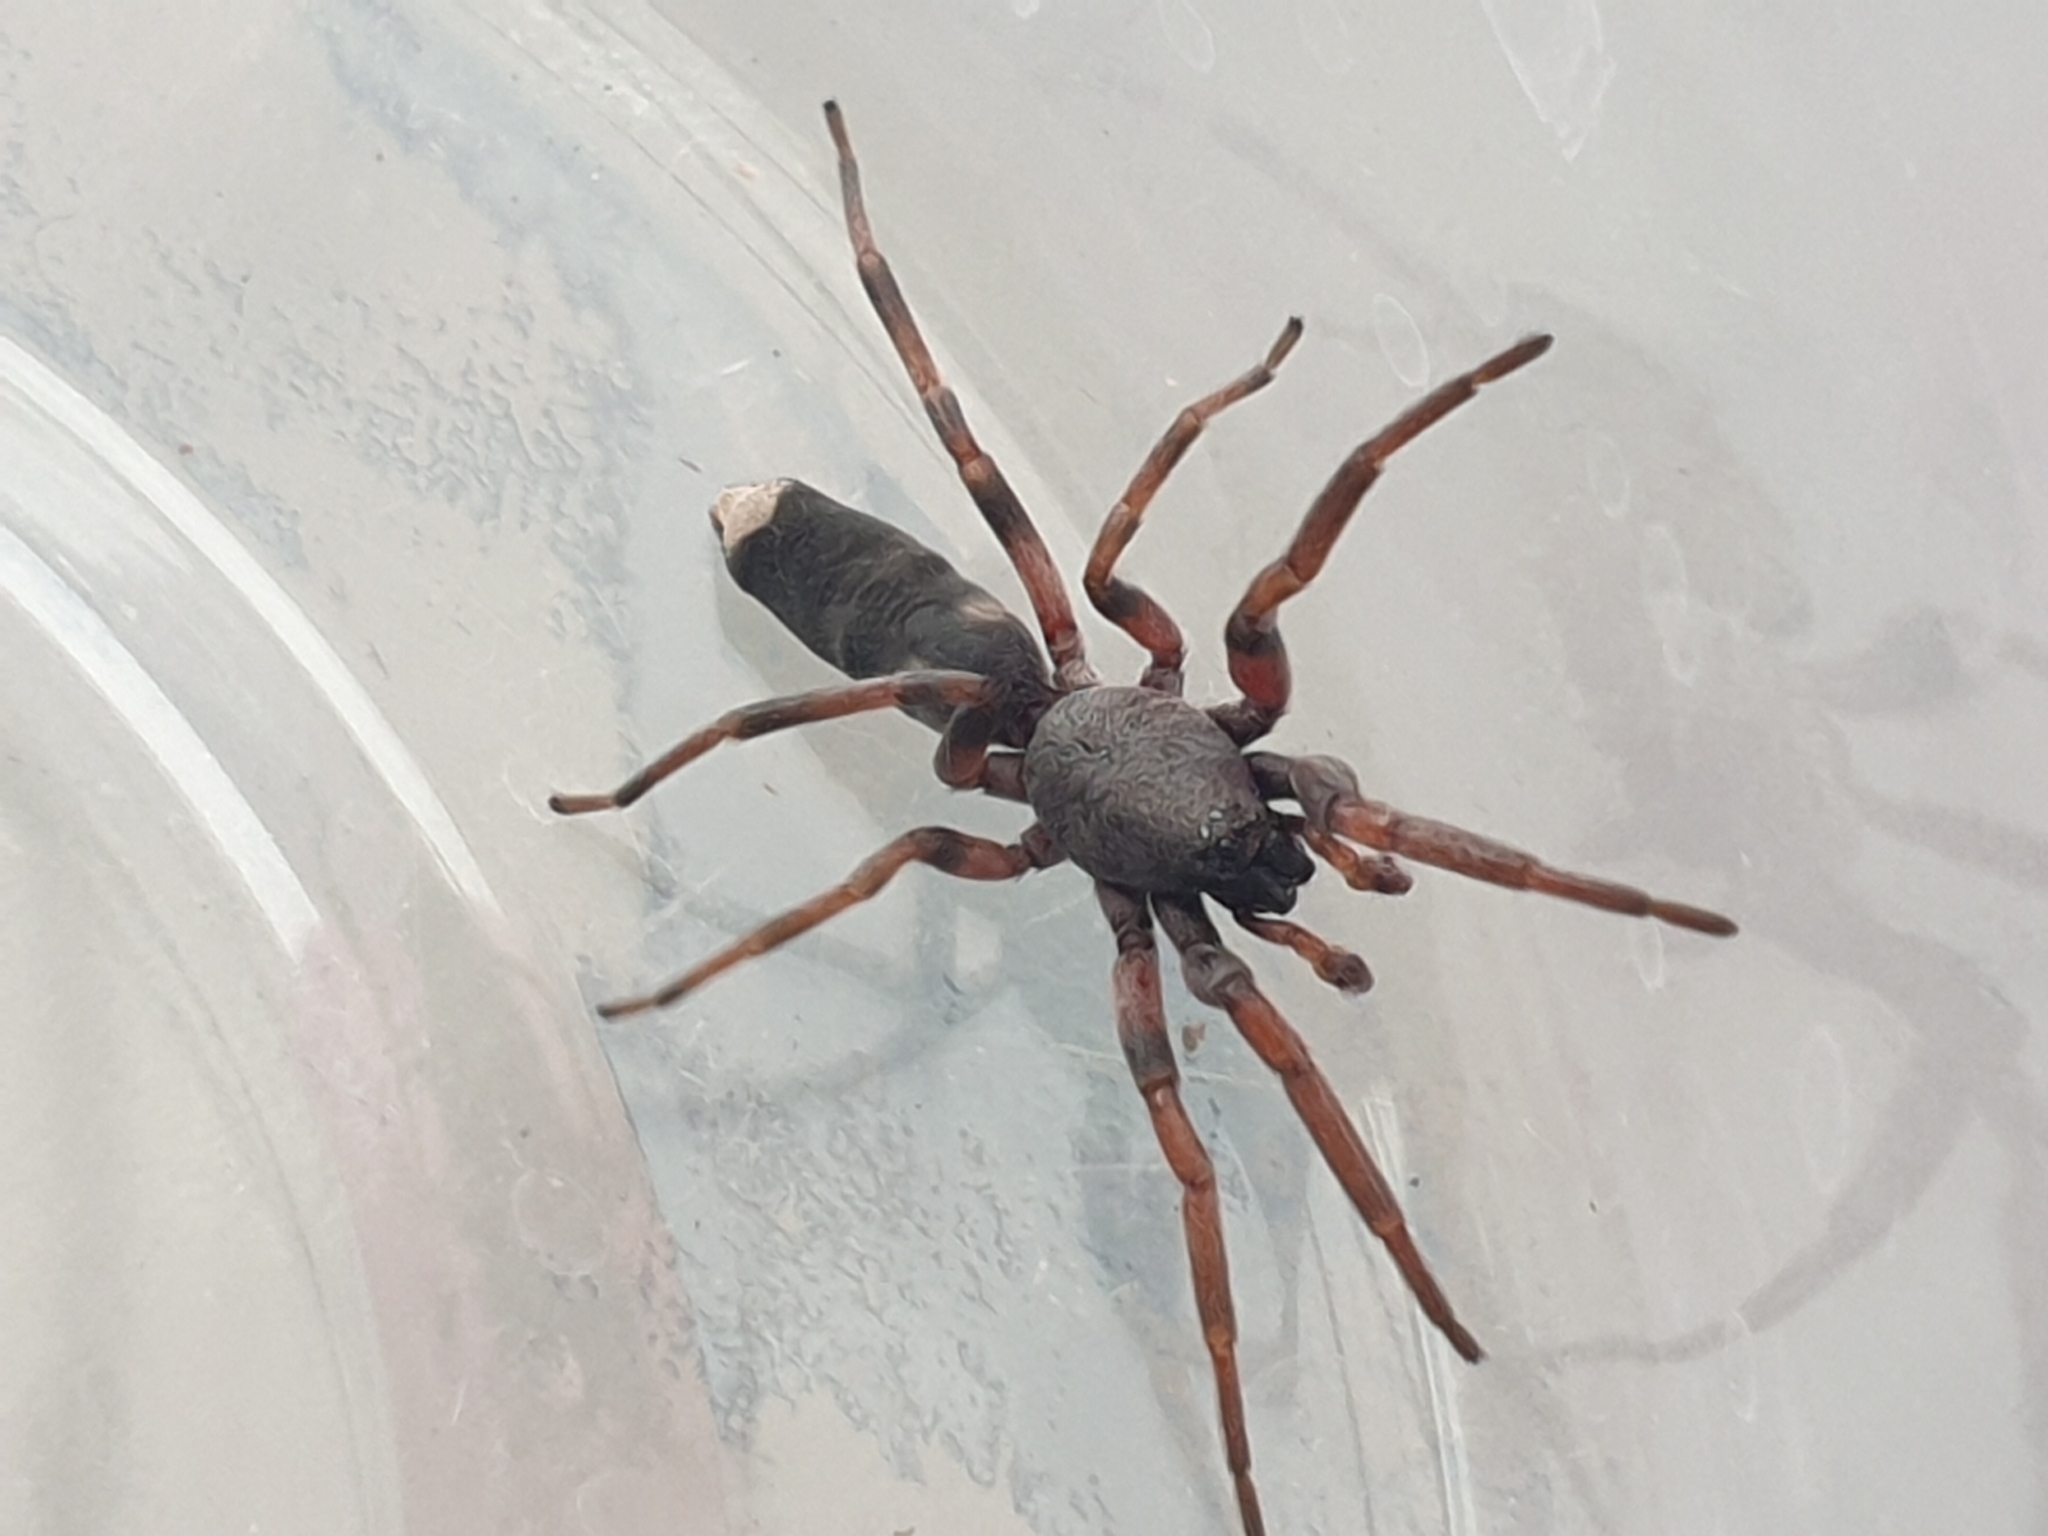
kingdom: Animalia
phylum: Arthropoda
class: Arachnida
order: Araneae
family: Lamponidae
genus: Lampona
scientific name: Lampona murina
